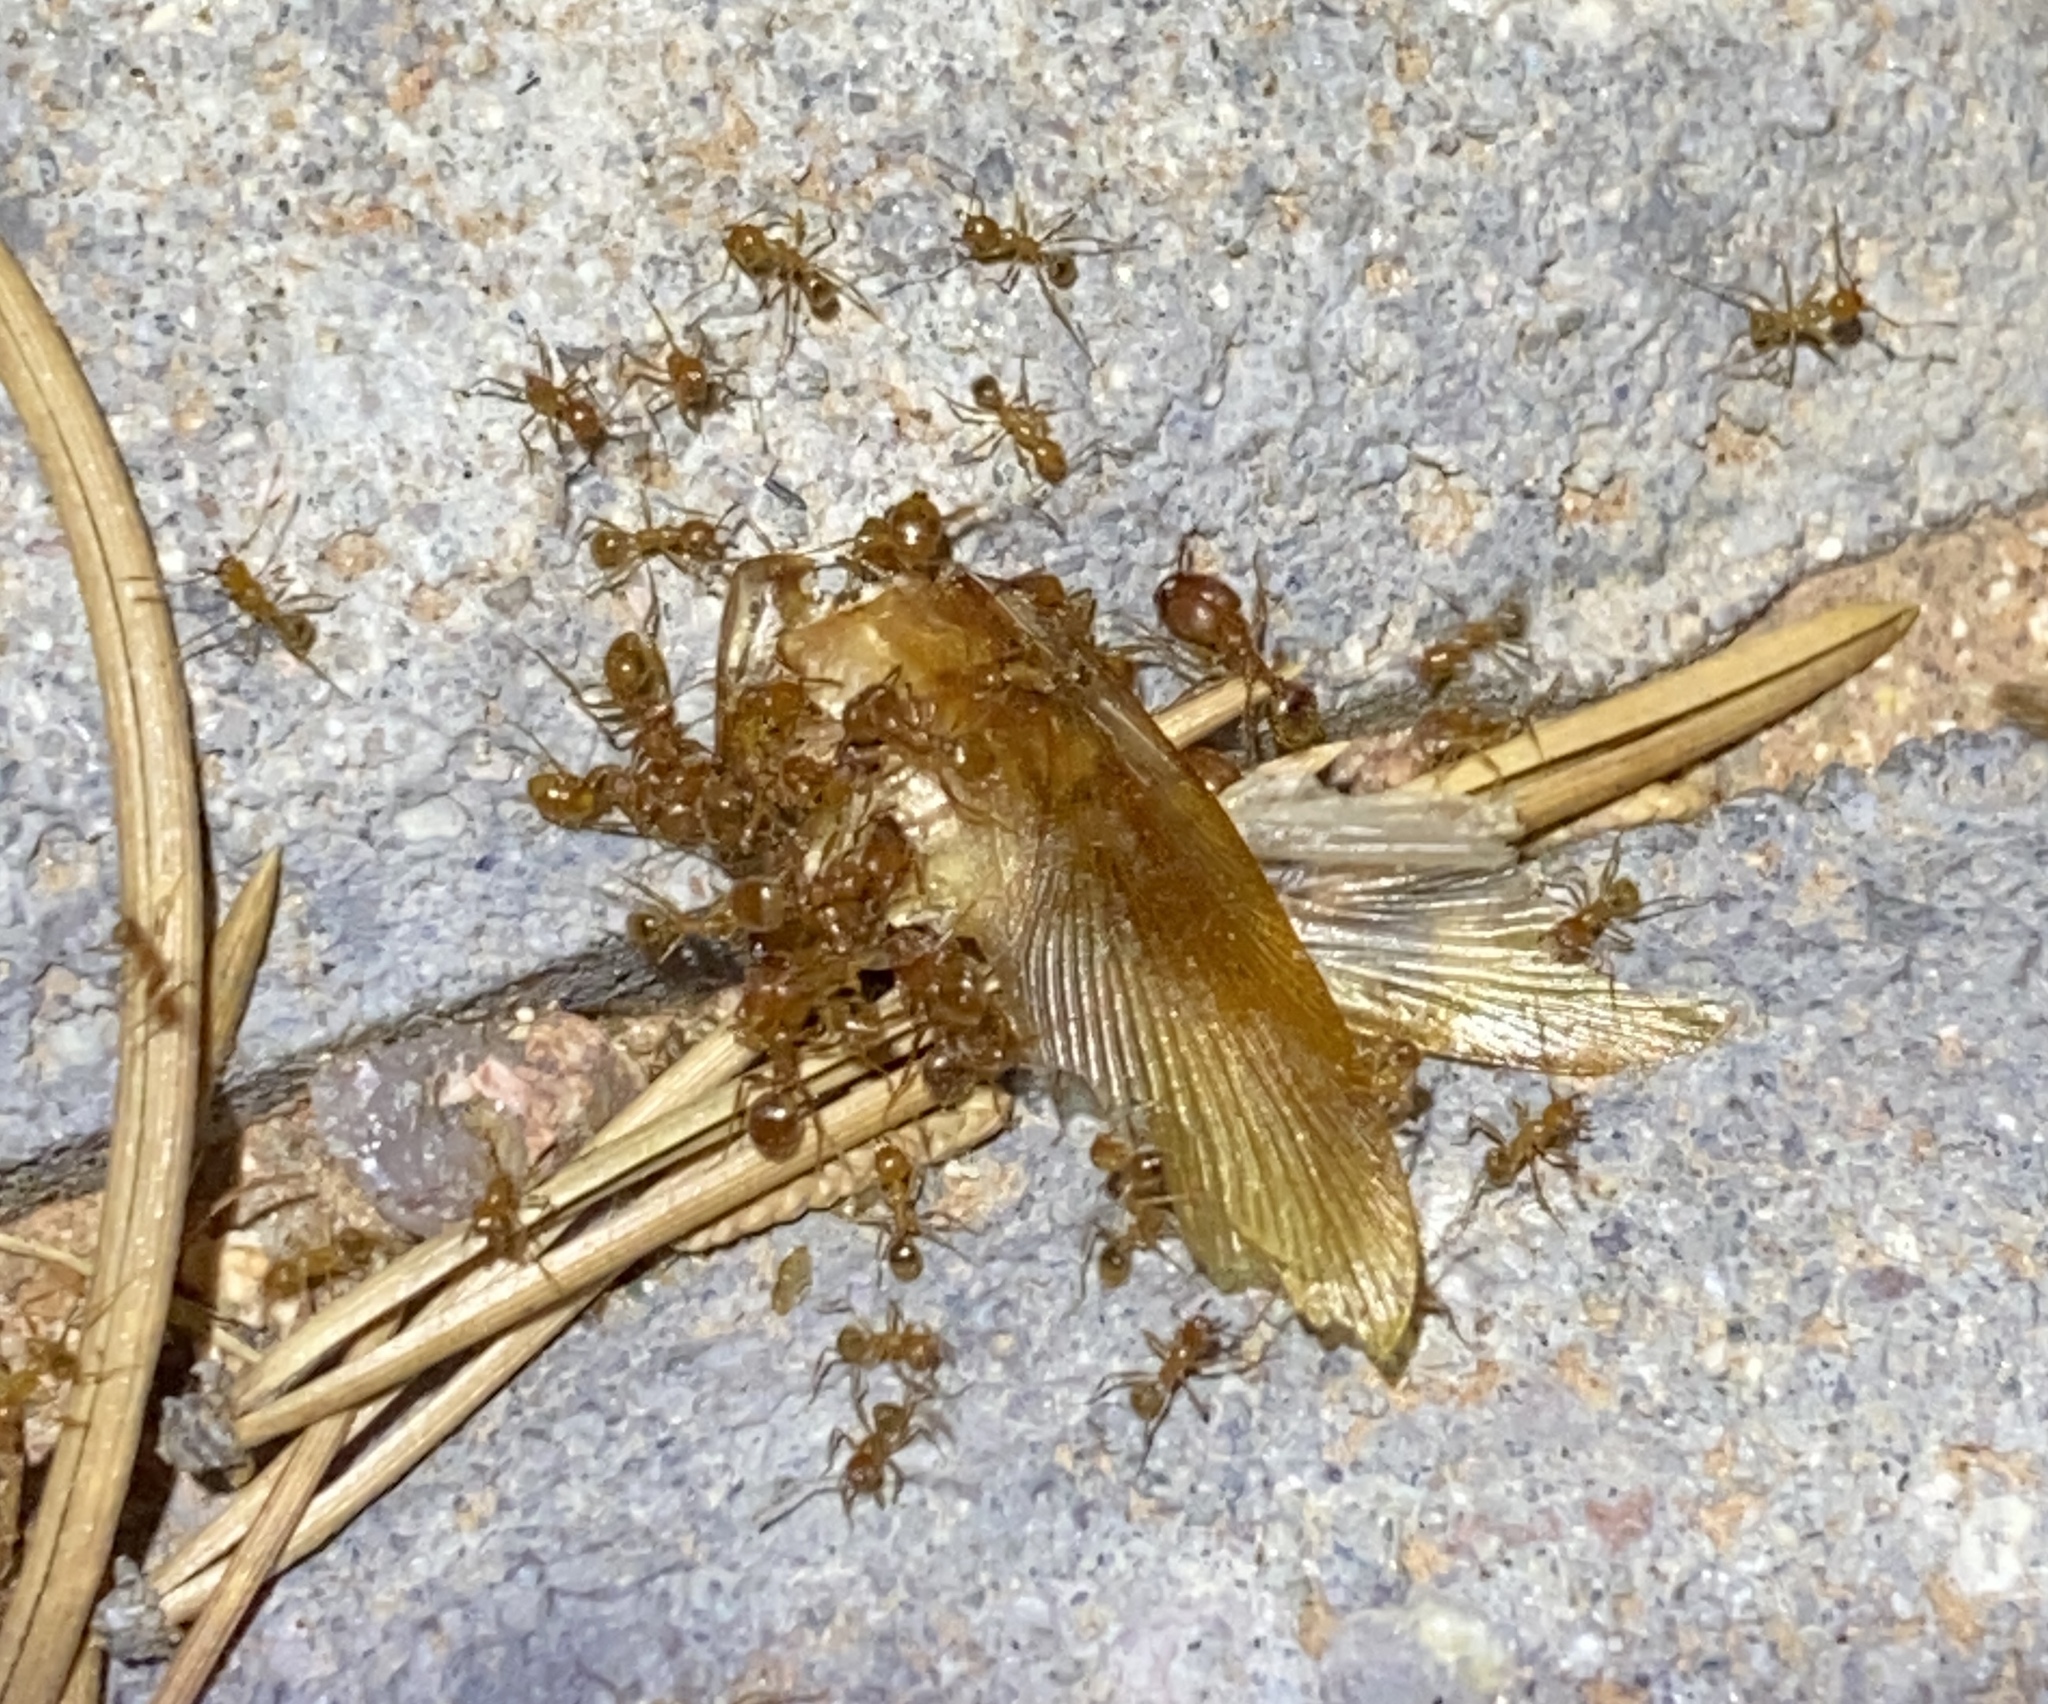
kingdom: Animalia
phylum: Arthropoda
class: Insecta
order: Hymenoptera
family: Formicidae
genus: Pheidole
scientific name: Pheidole hyatti
